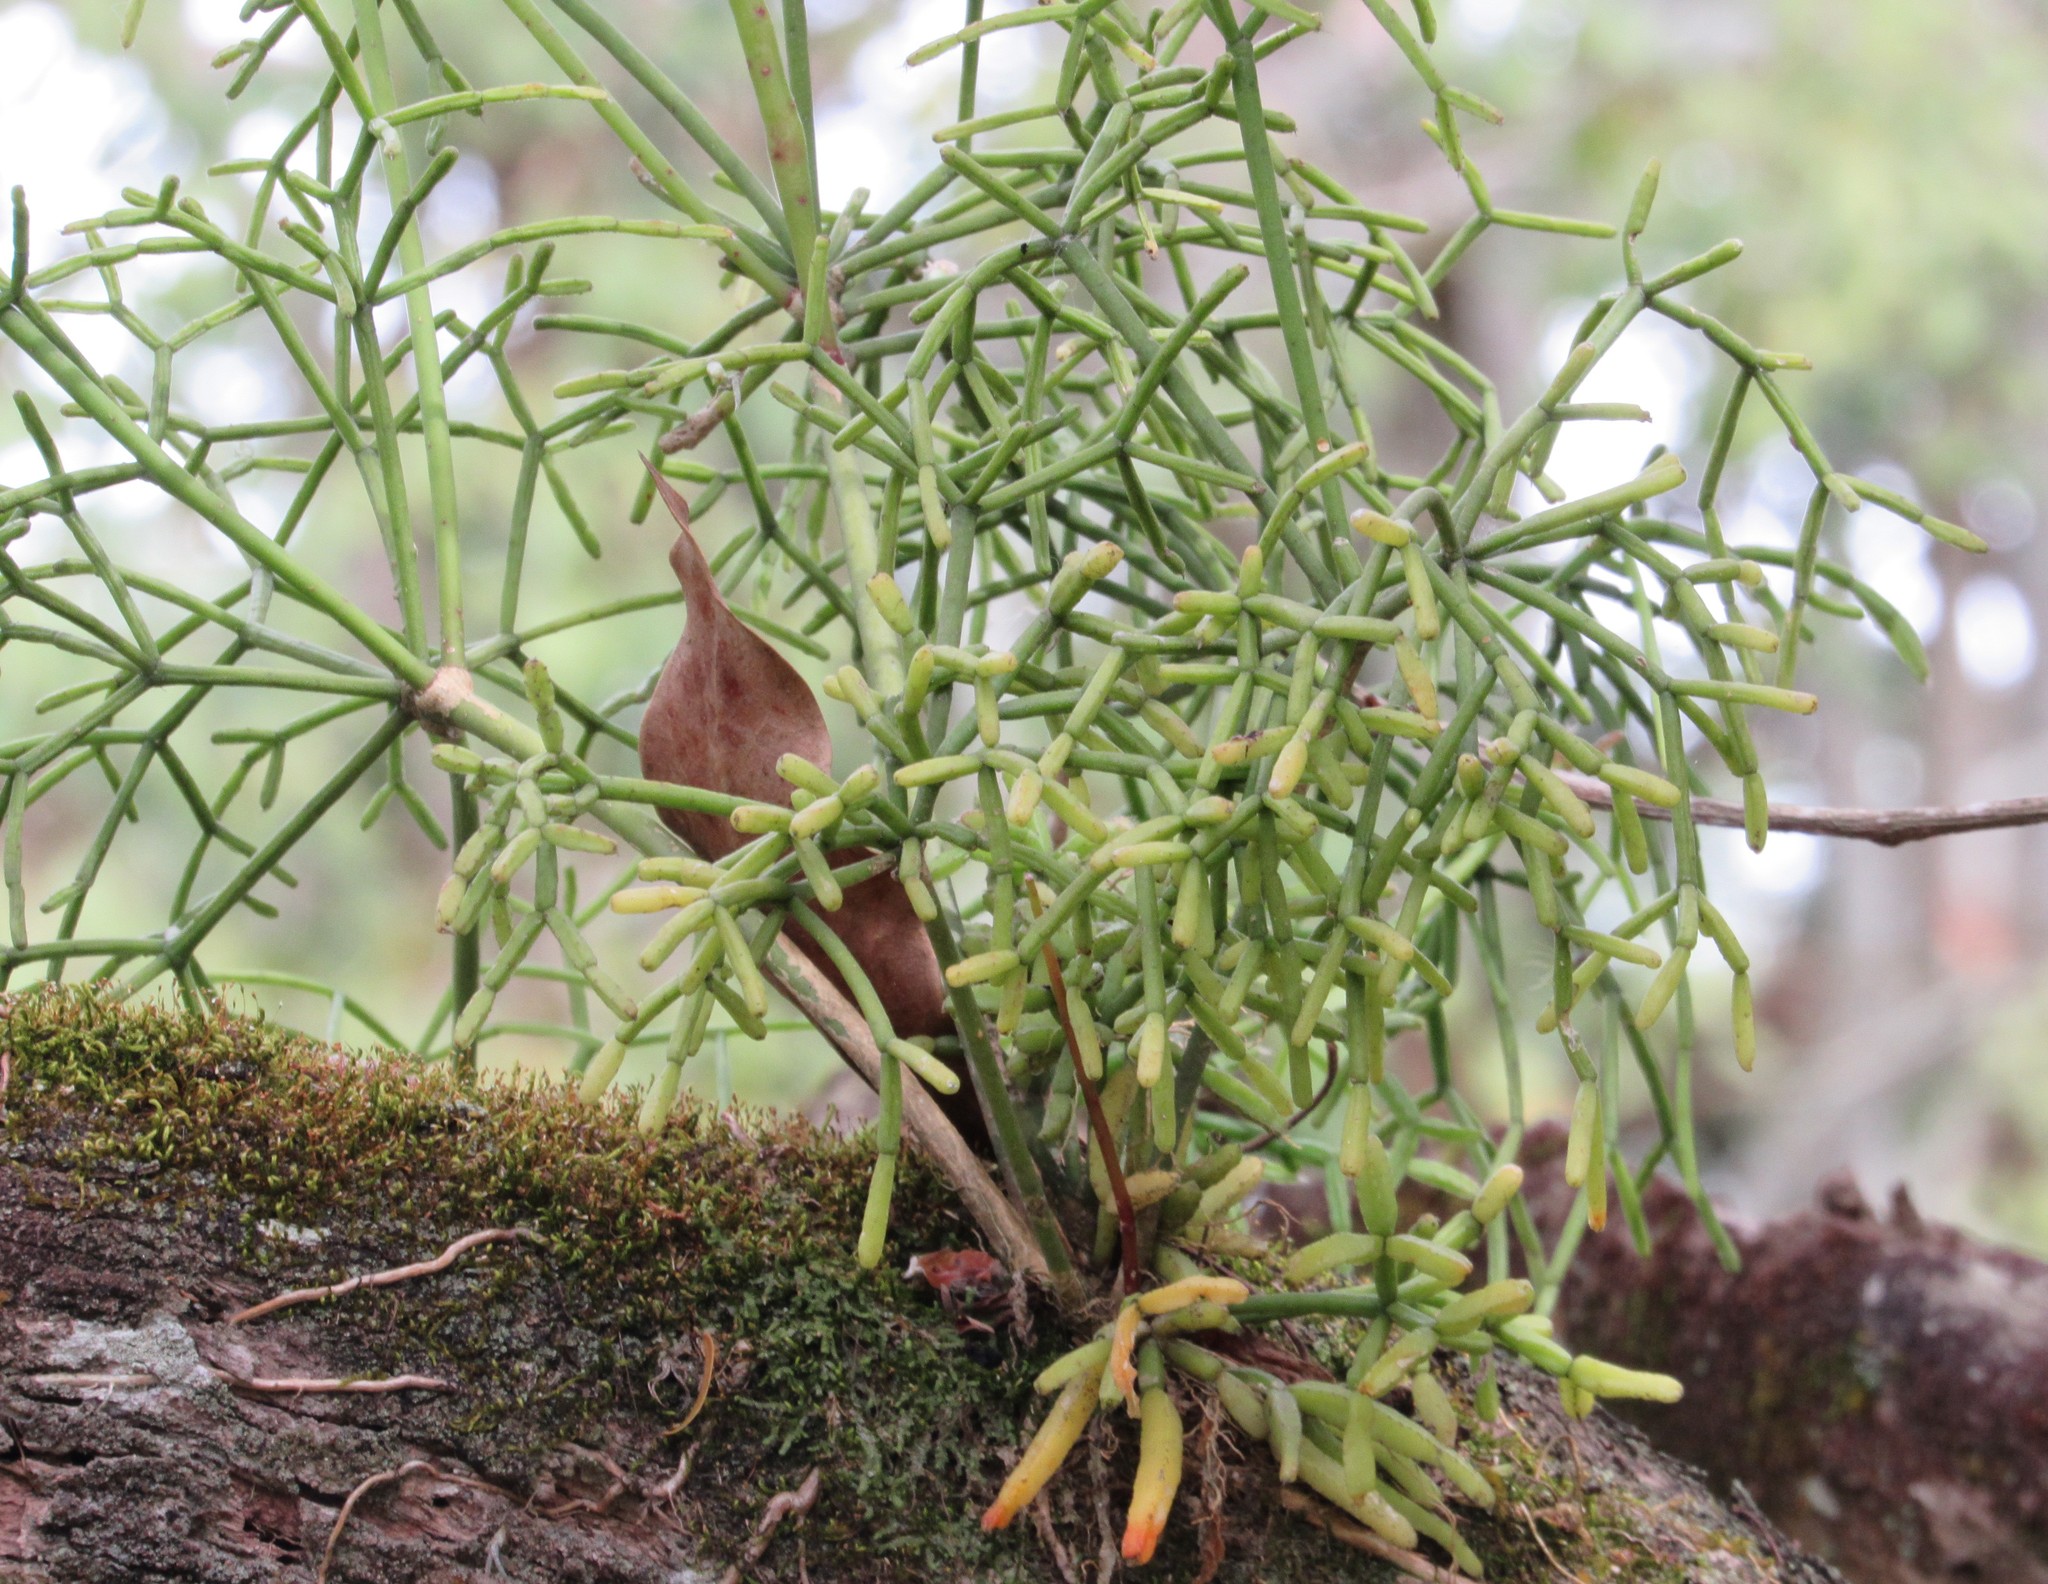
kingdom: Plantae
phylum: Tracheophyta
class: Magnoliopsida
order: Caryophyllales
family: Cactaceae
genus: Rhipsalis
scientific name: Rhipsalis teres
